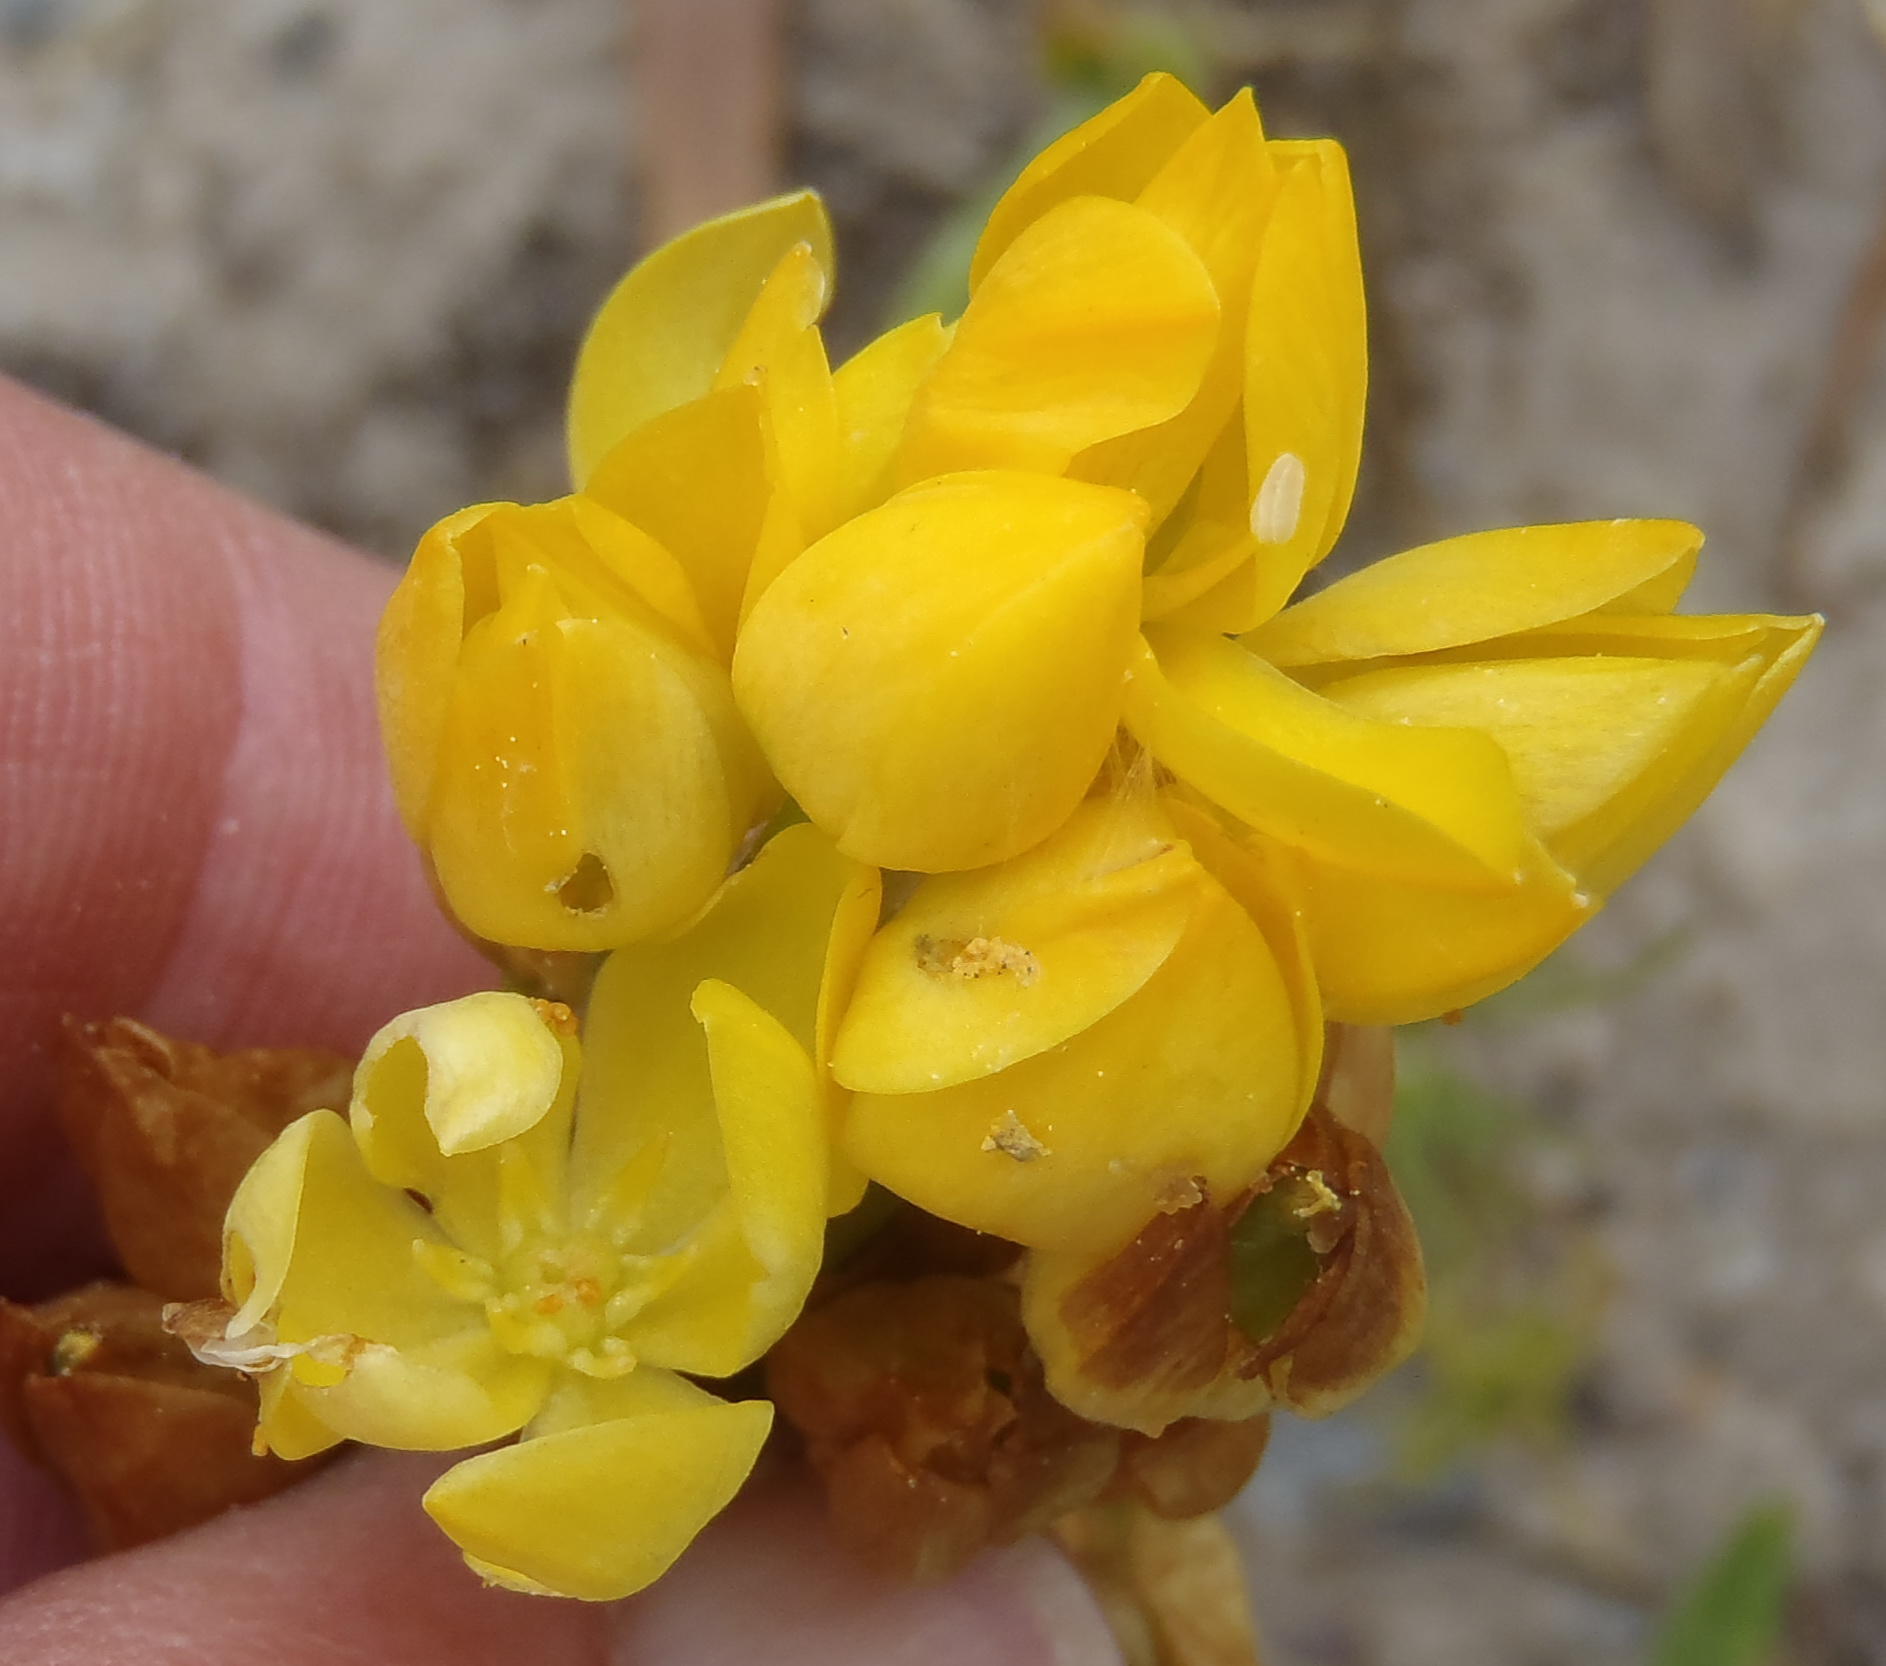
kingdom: Plantae
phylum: Tracheophyta
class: Liliopsida
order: Asparagales
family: Asparagaceae
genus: Ornithogalum
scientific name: Ornithogalum dubium
